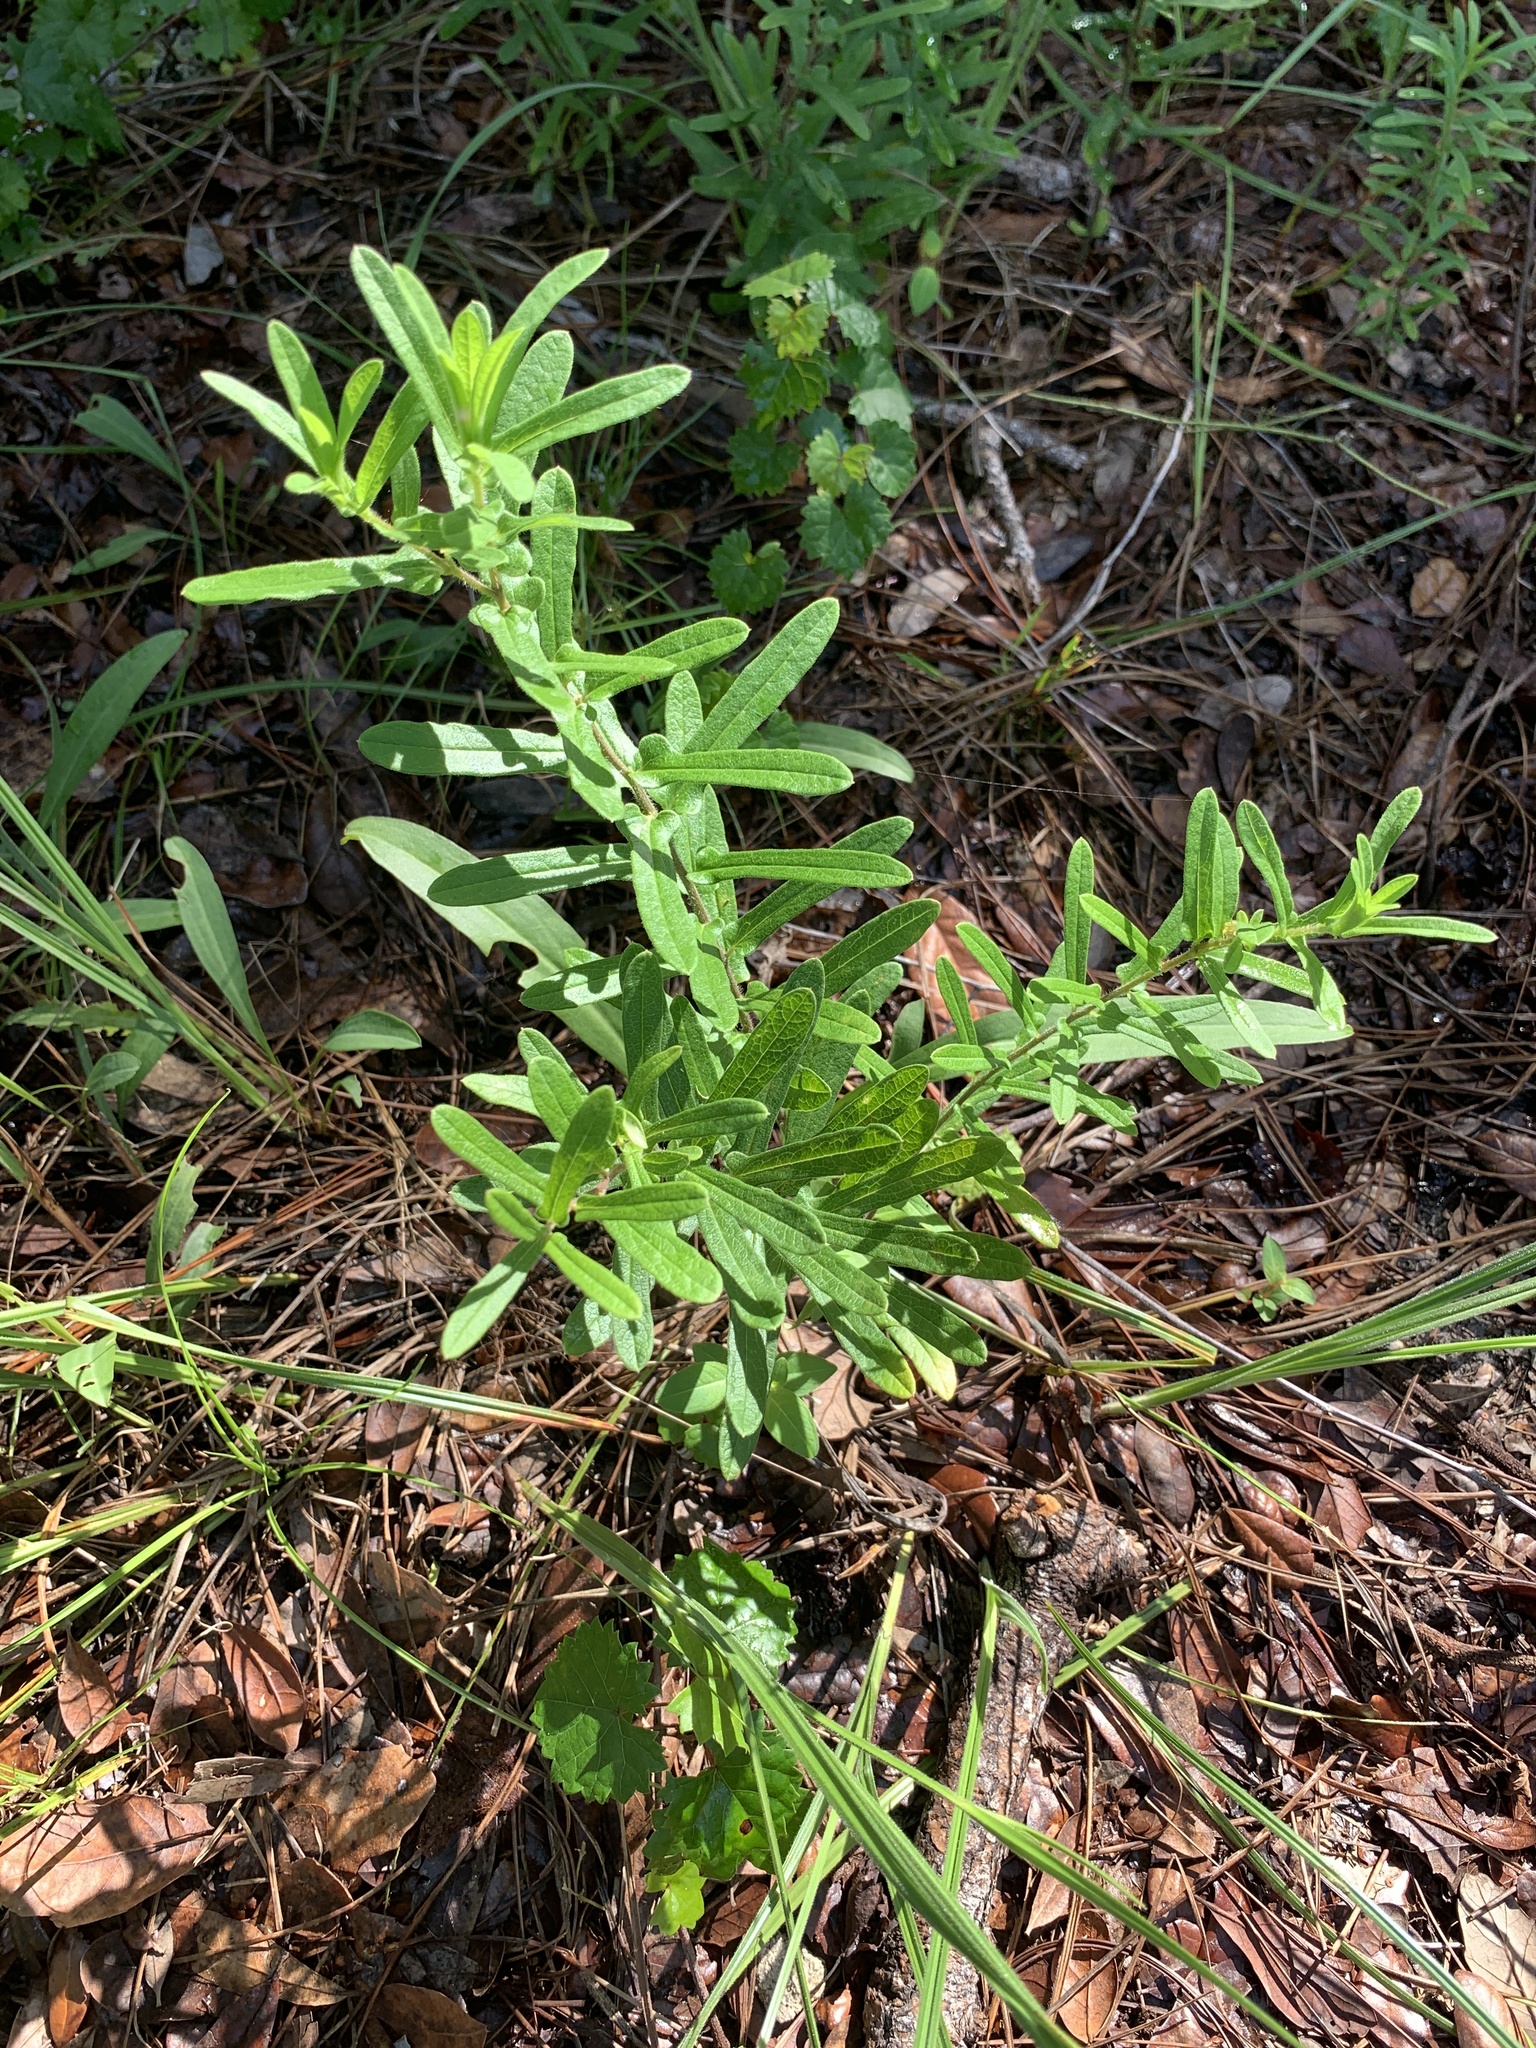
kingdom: Plantae
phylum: Tracheophyta
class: Magnoliopsida
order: Gentianales
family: Apocynaceae
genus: Asclepias
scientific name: Asclepias tuberosa
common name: Butterfly milkweed
